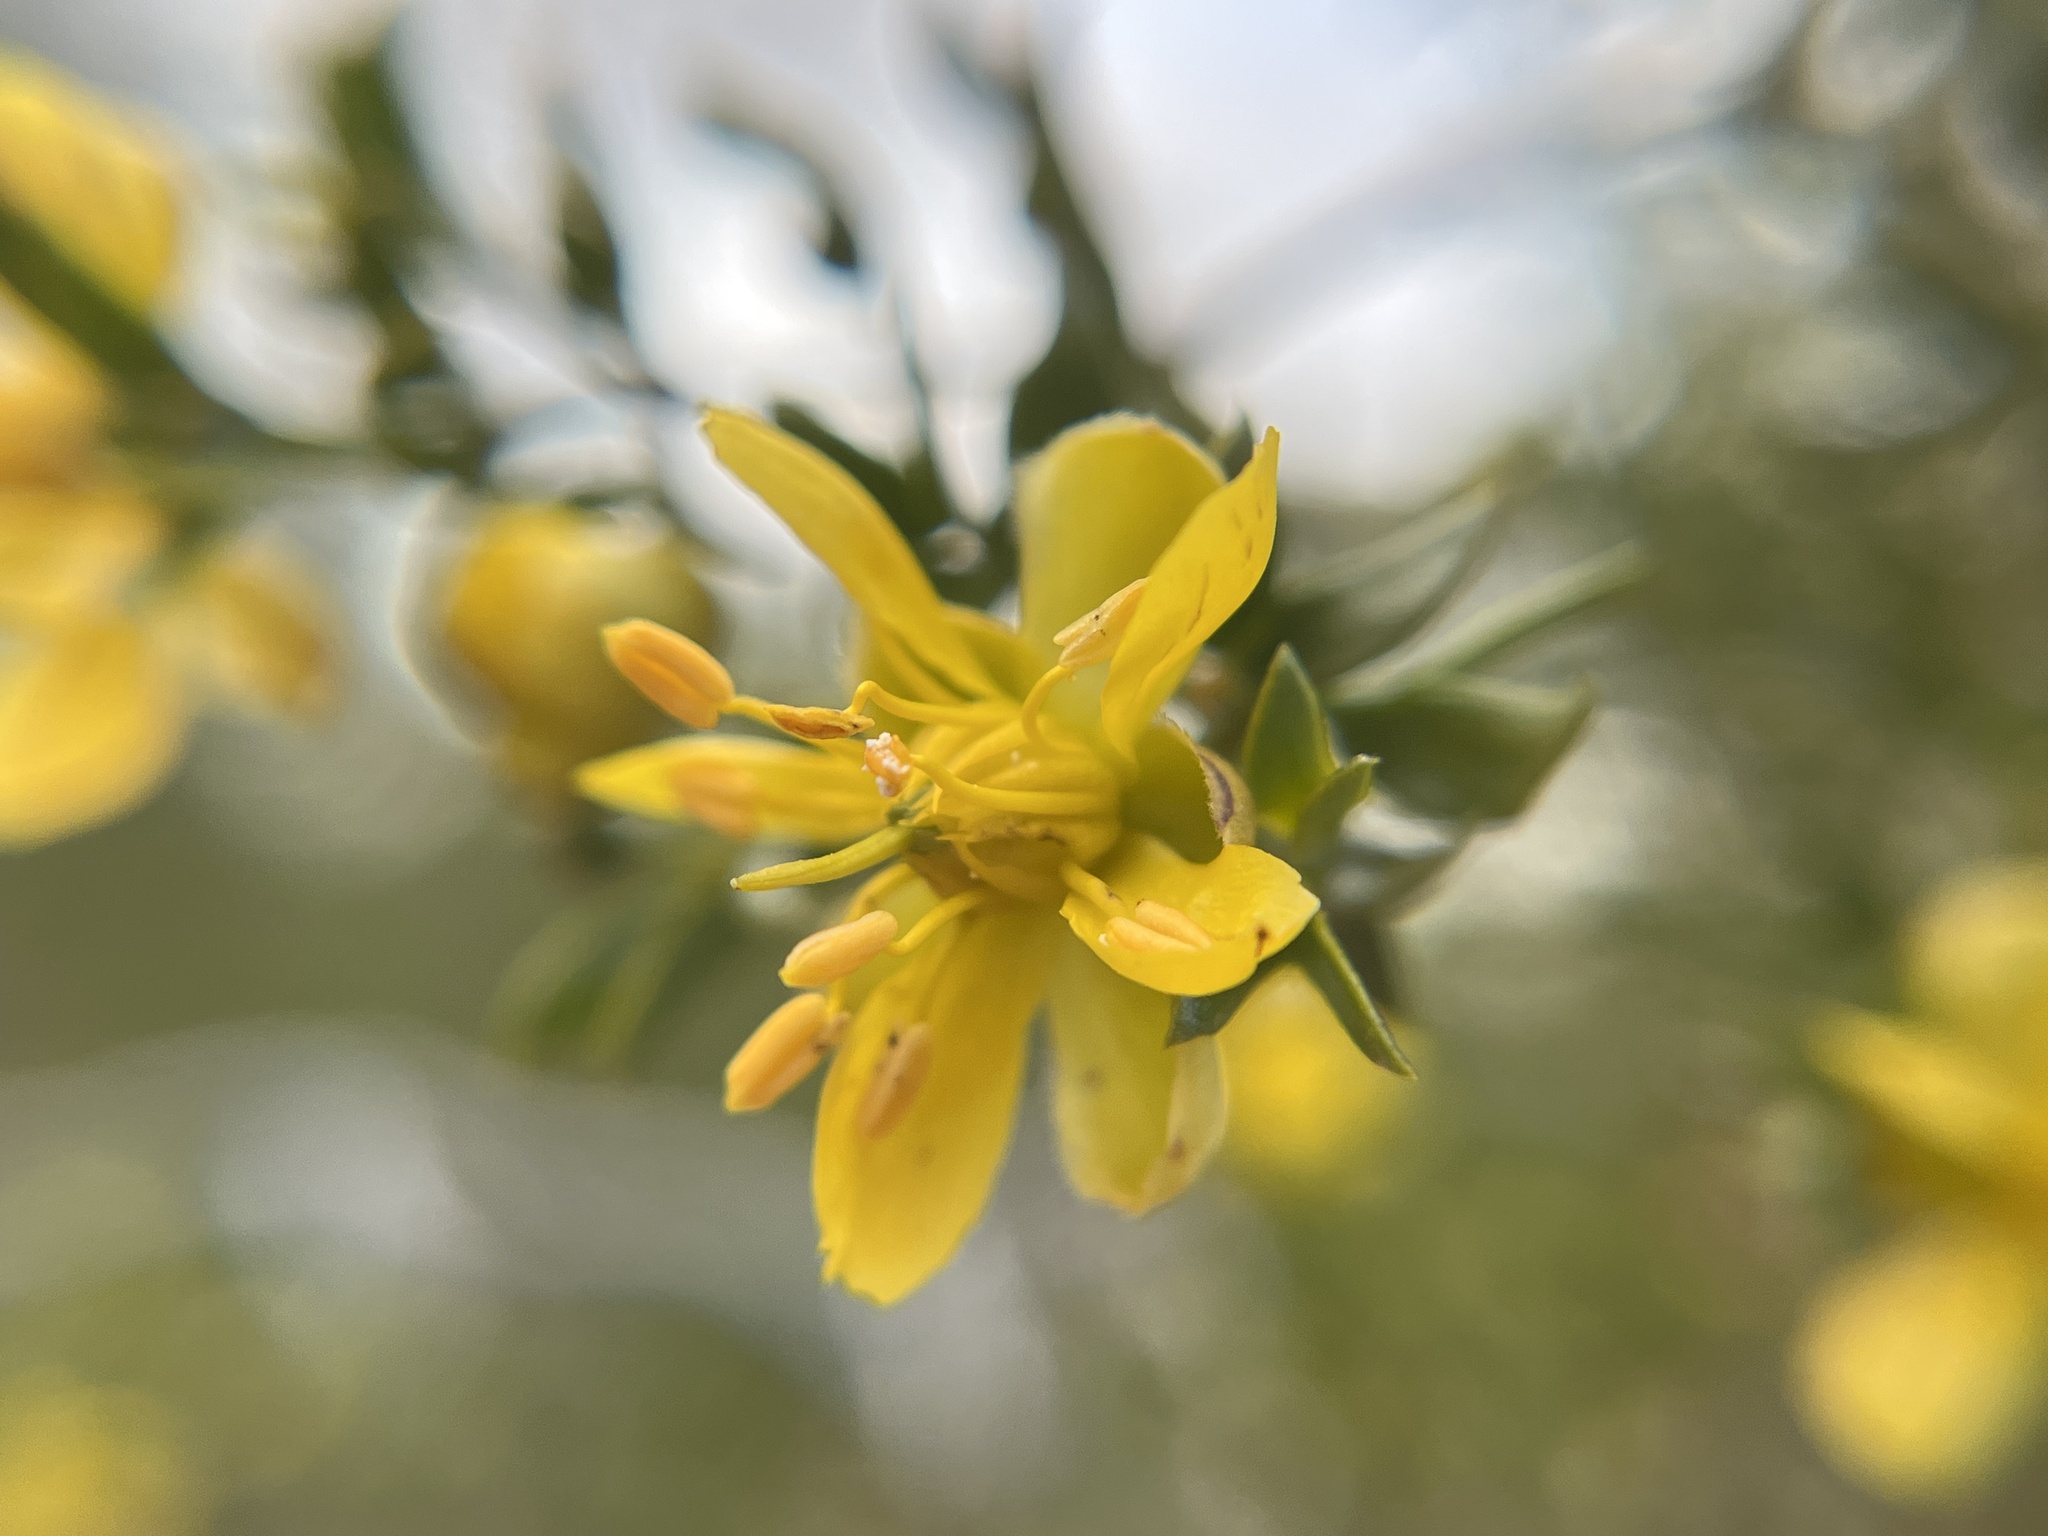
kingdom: Plantae
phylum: Tracheophyta
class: Magnoliopsida
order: Zygophyllales
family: Zygophyllaceae
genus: Larrea
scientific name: Larrea tridentata
